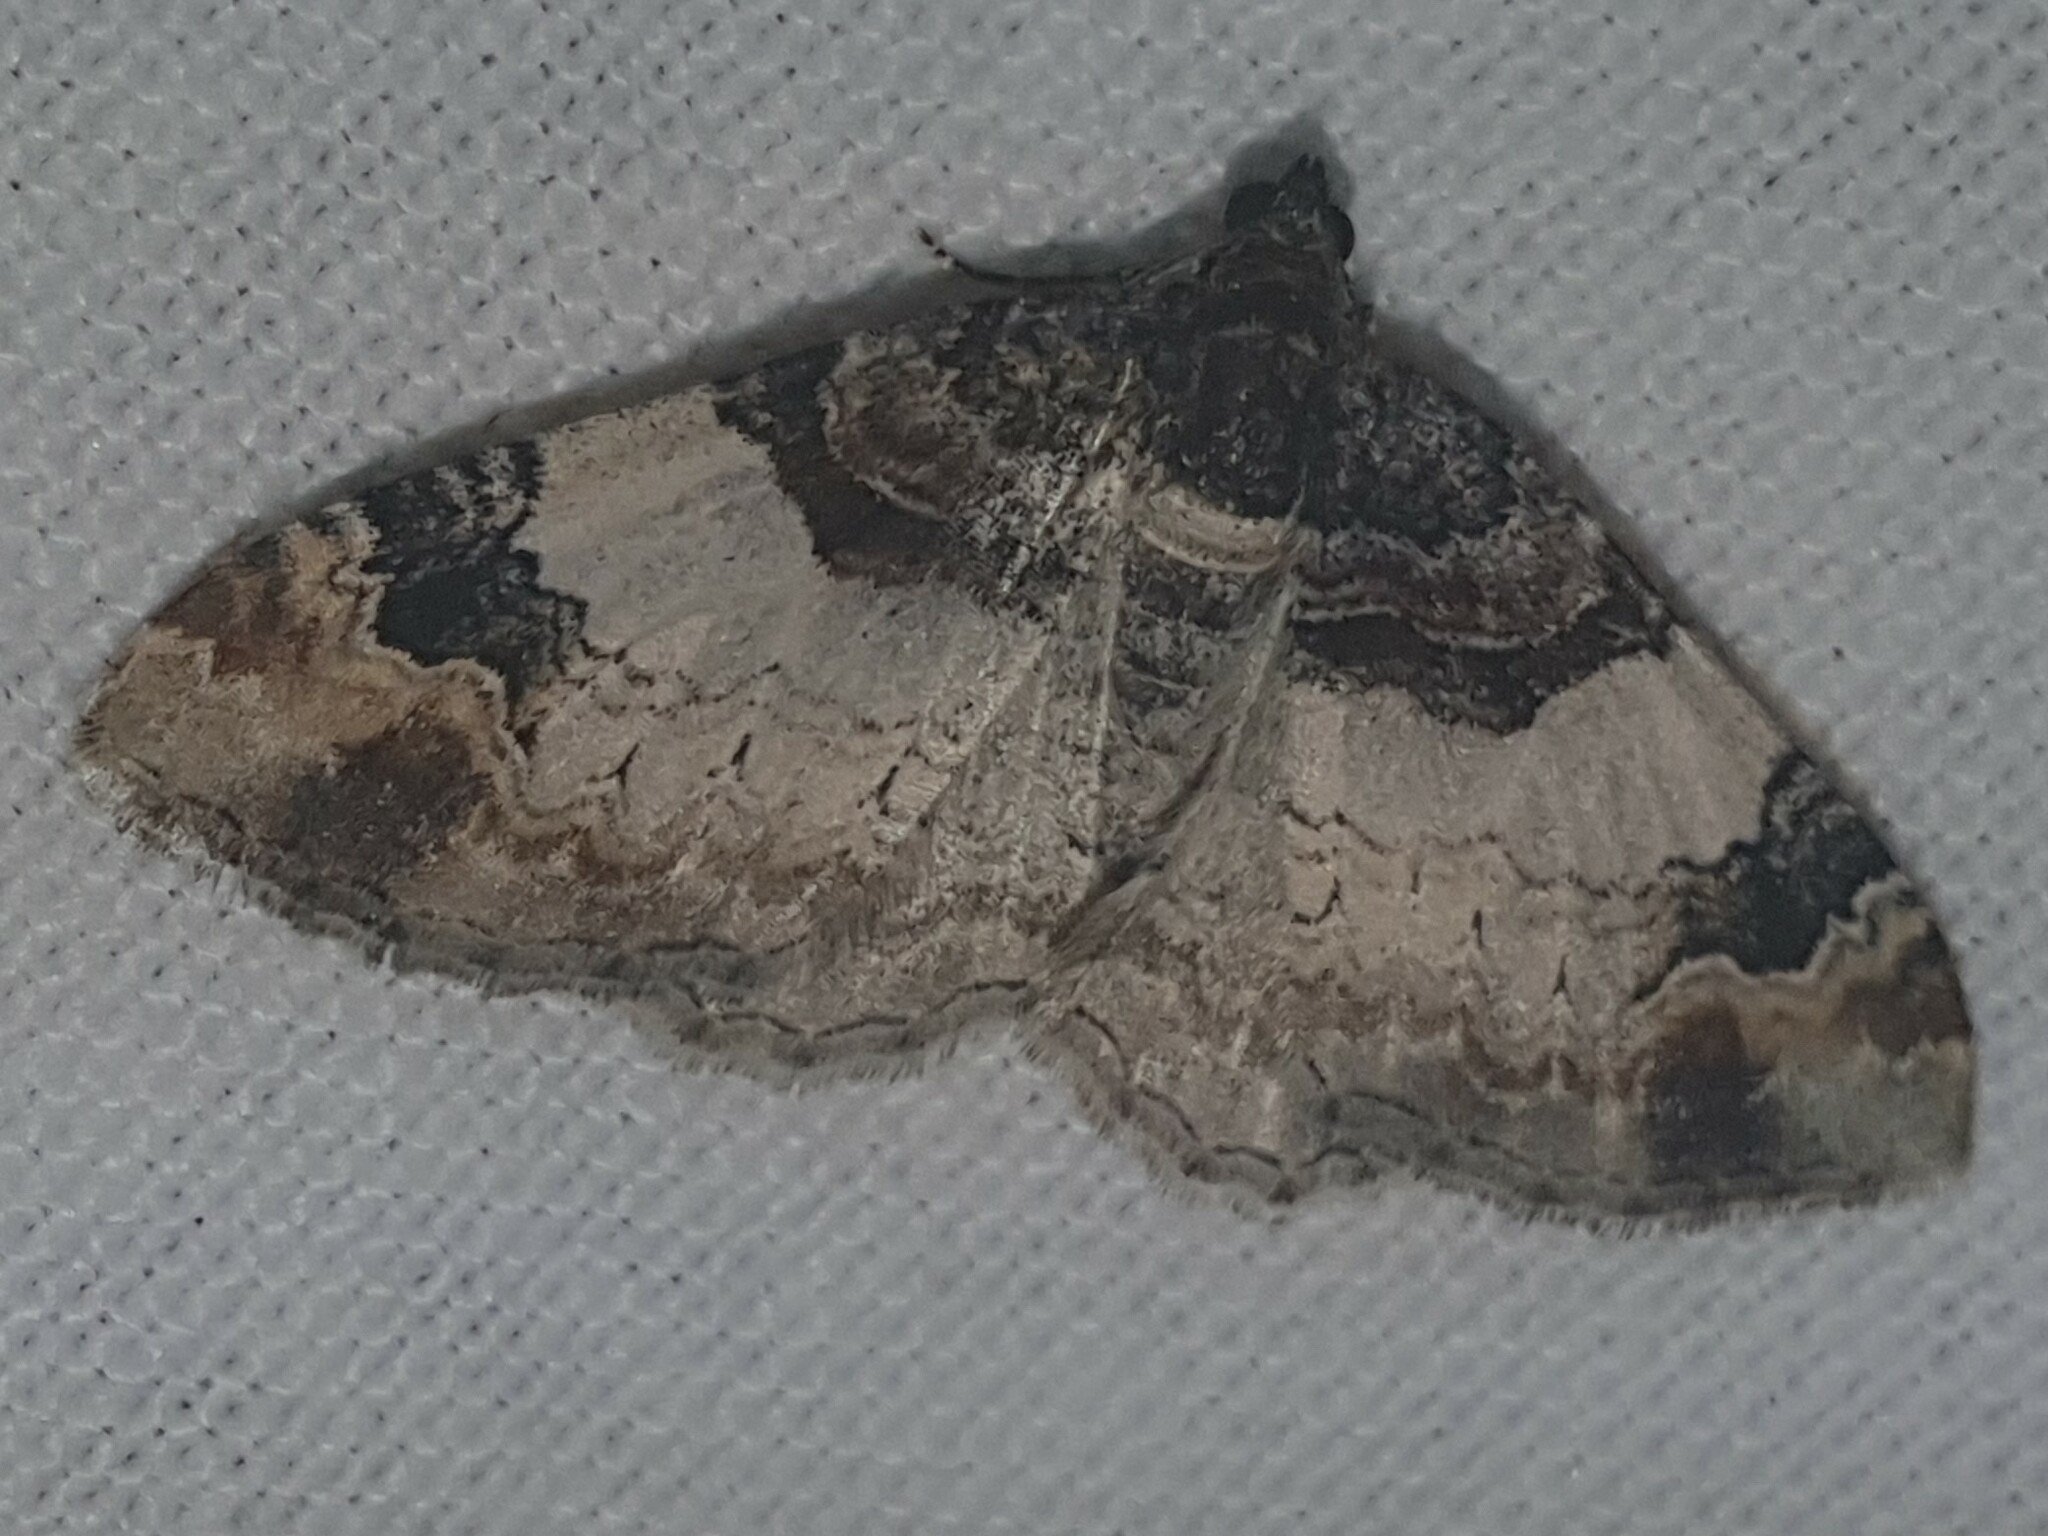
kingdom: Animalia
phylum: Arthropoda
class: Insecta
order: Lepidoptera
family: Geometridae
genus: Catarhoe
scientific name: Catarhoe cuculata
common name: Royal mantle
